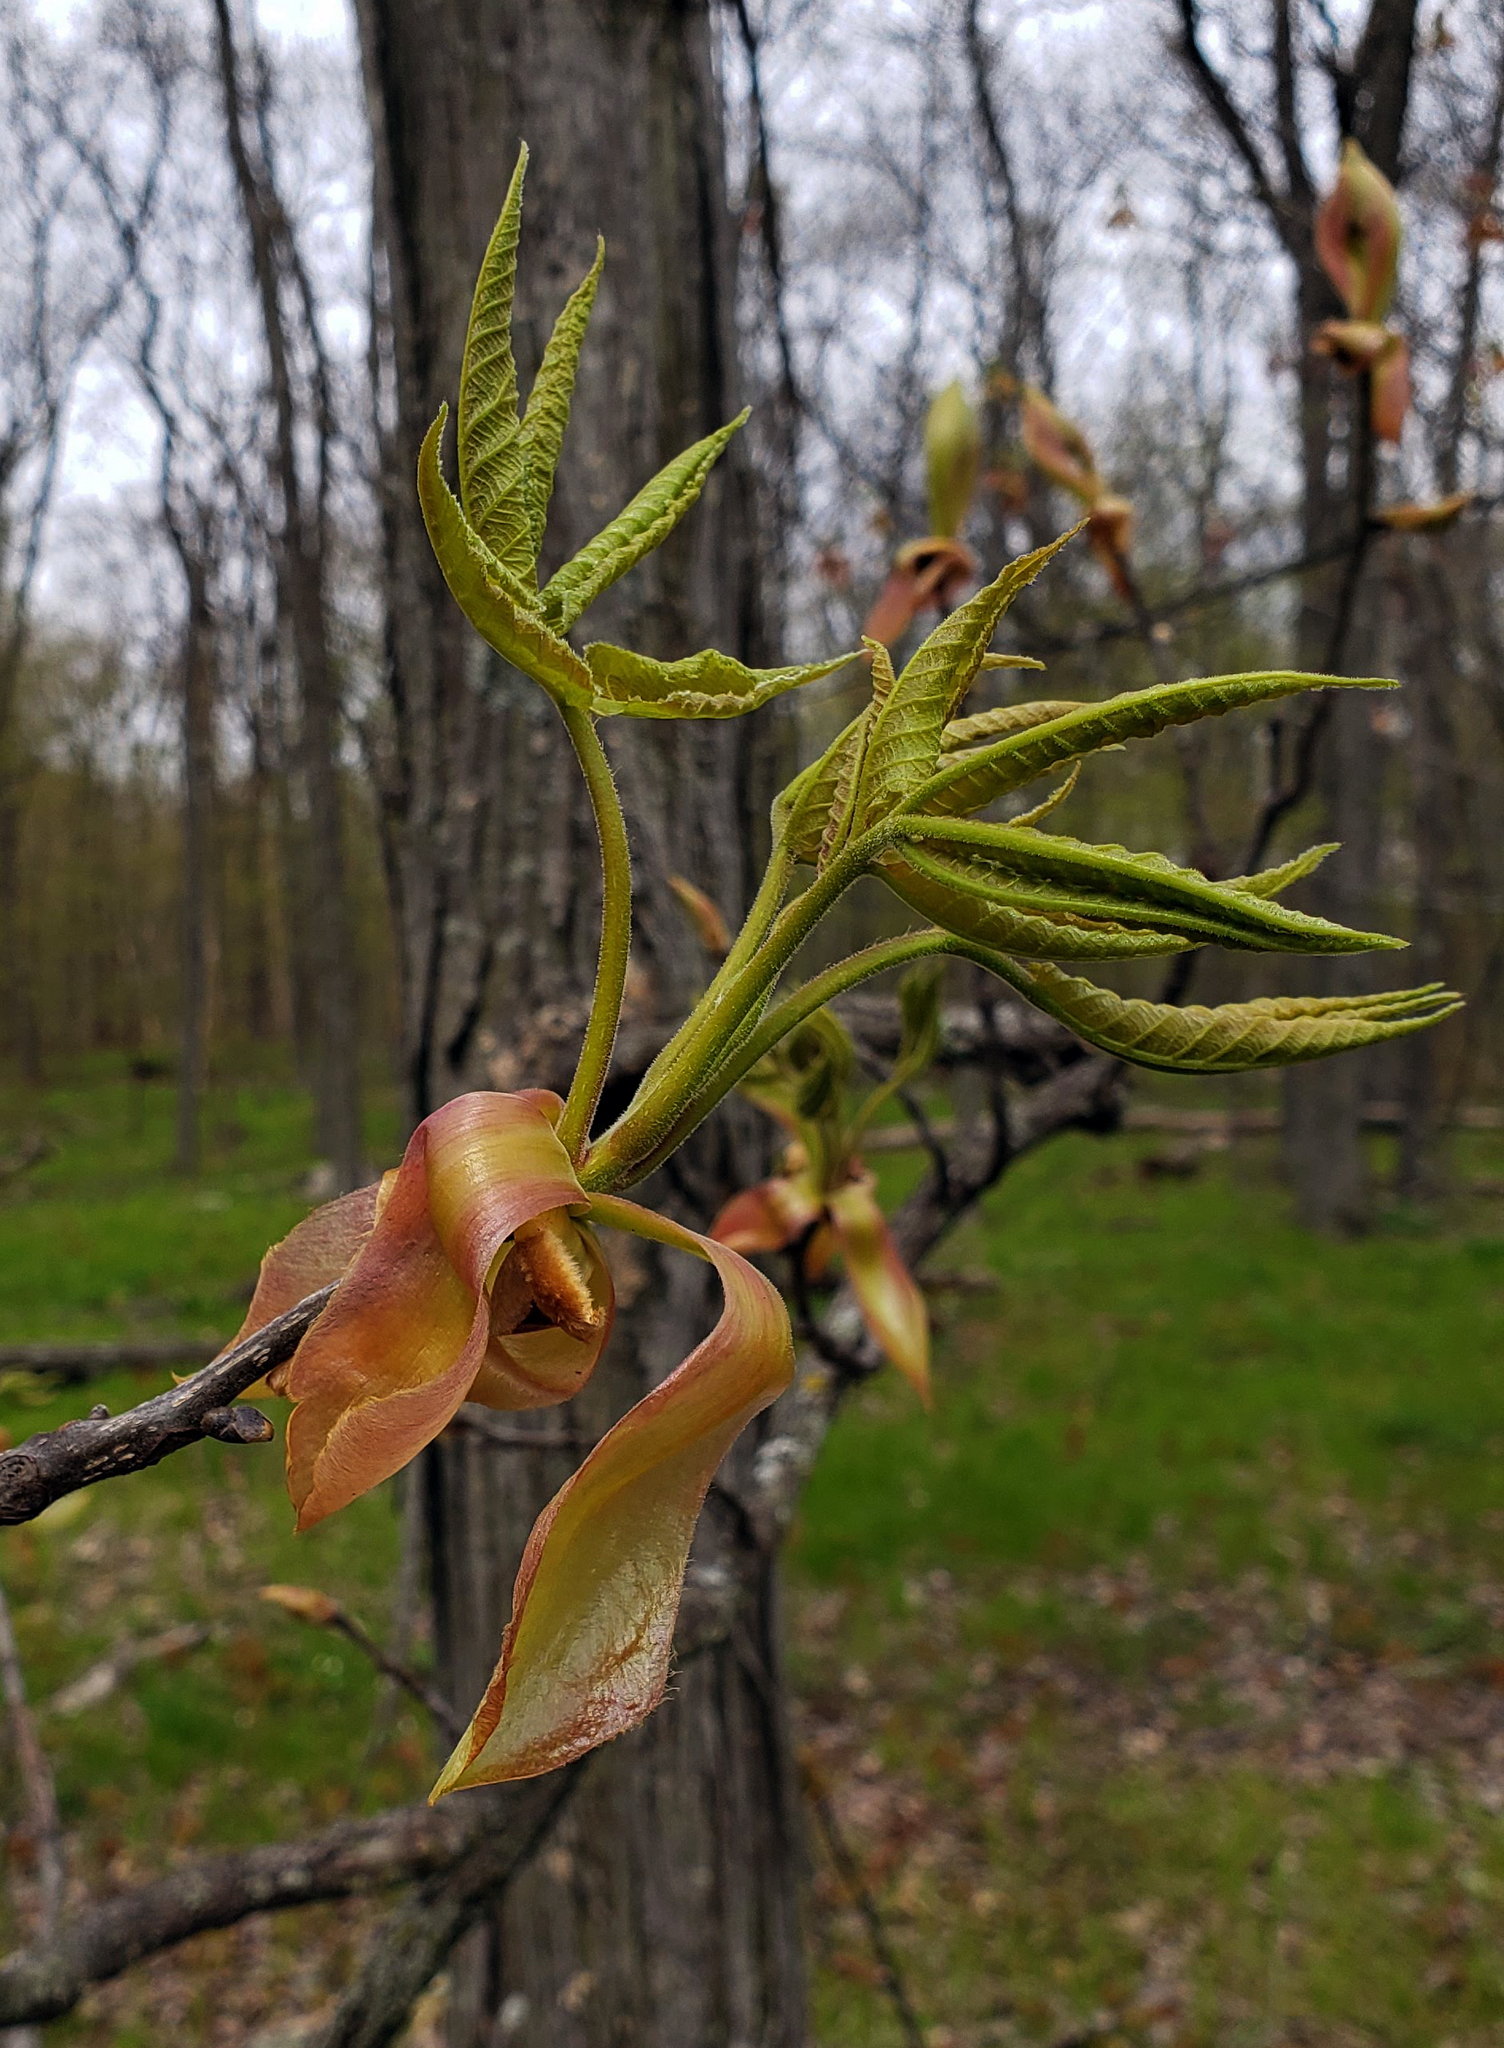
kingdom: Plantae
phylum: Tracheophyta
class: Magnoliopsida
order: Fagales
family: Juglandaceae
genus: Carya
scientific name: Carya ovata
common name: Shagbark hickory
